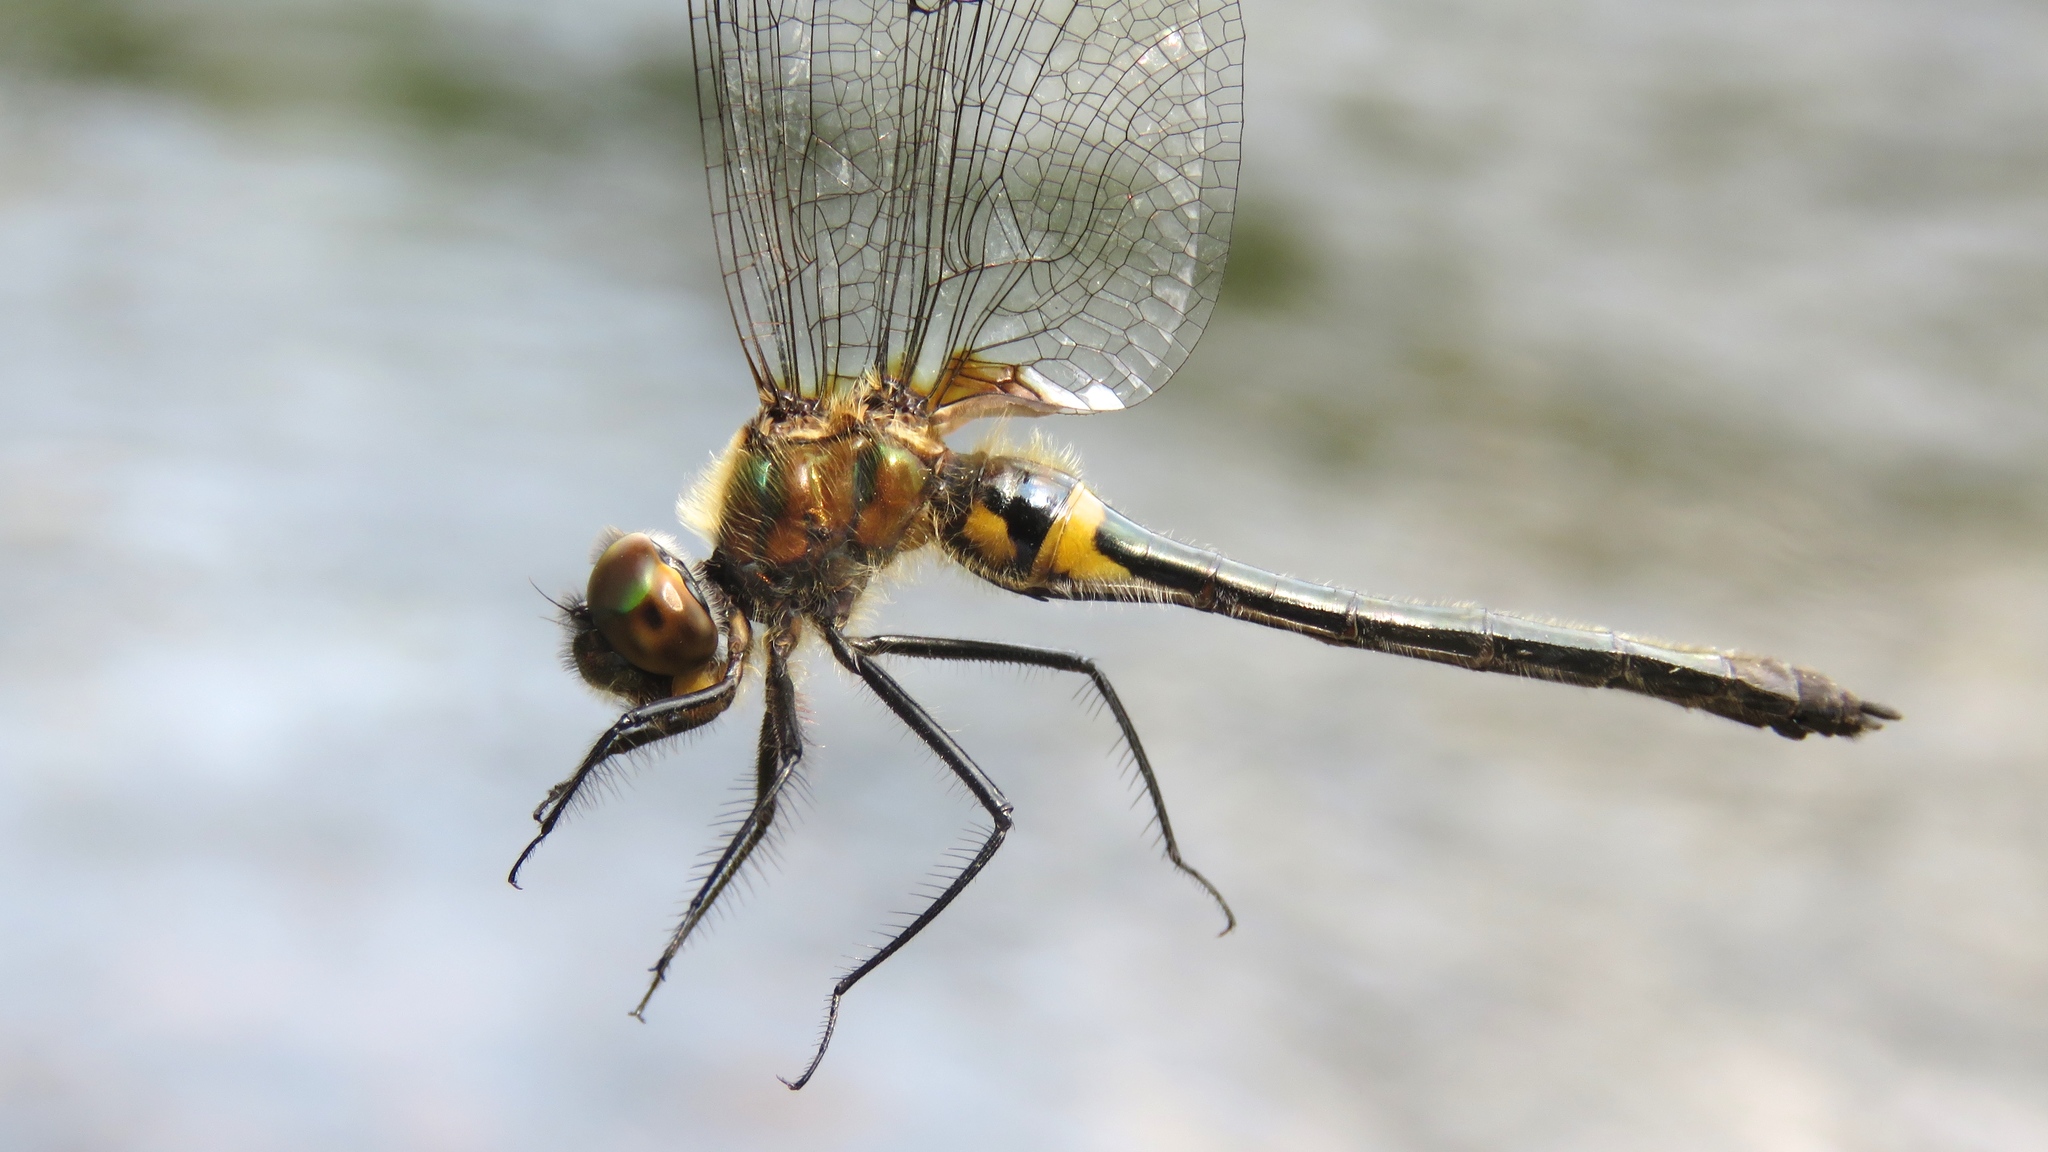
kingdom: Animalia
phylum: Arthropoda
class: Insecta
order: Odonata
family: Corduliidae
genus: Dorocordulia
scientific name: Dorocordulia libera
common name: Racket-tailed emerald
